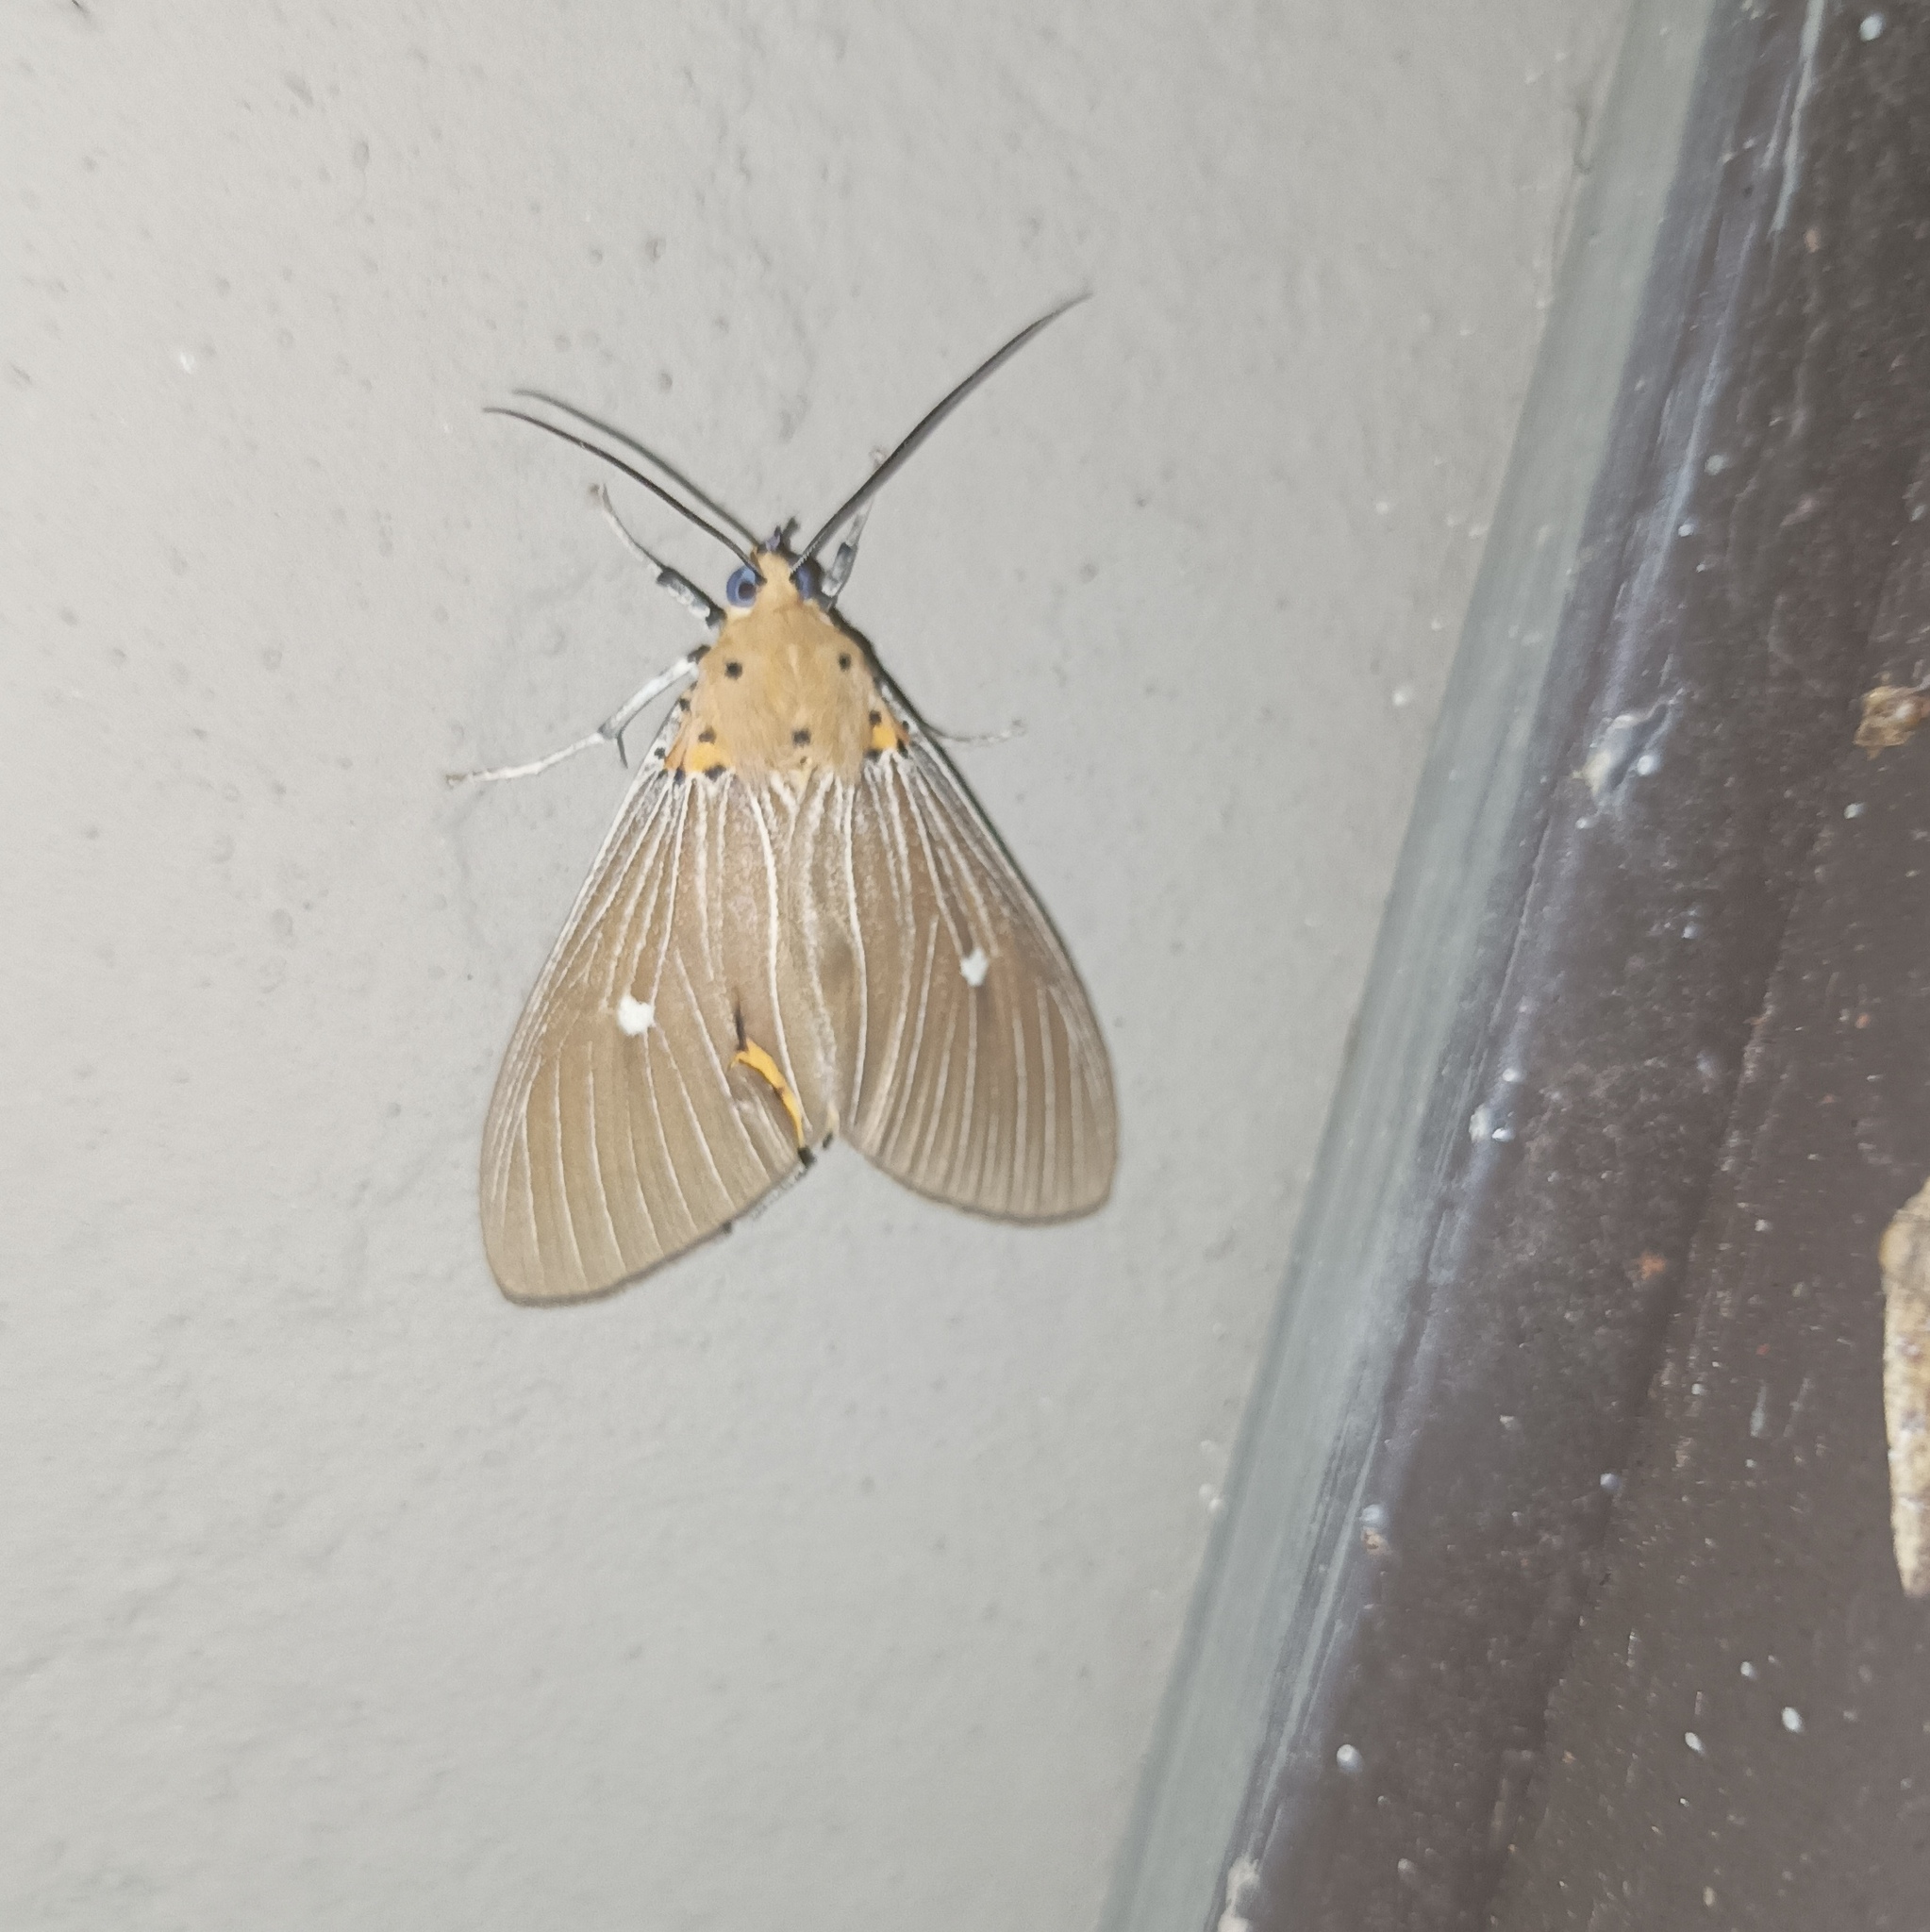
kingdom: Animalia
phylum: Arthropoda
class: Insecta
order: Lepidoptera
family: Erebidae
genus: Asota
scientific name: Asota caricae
